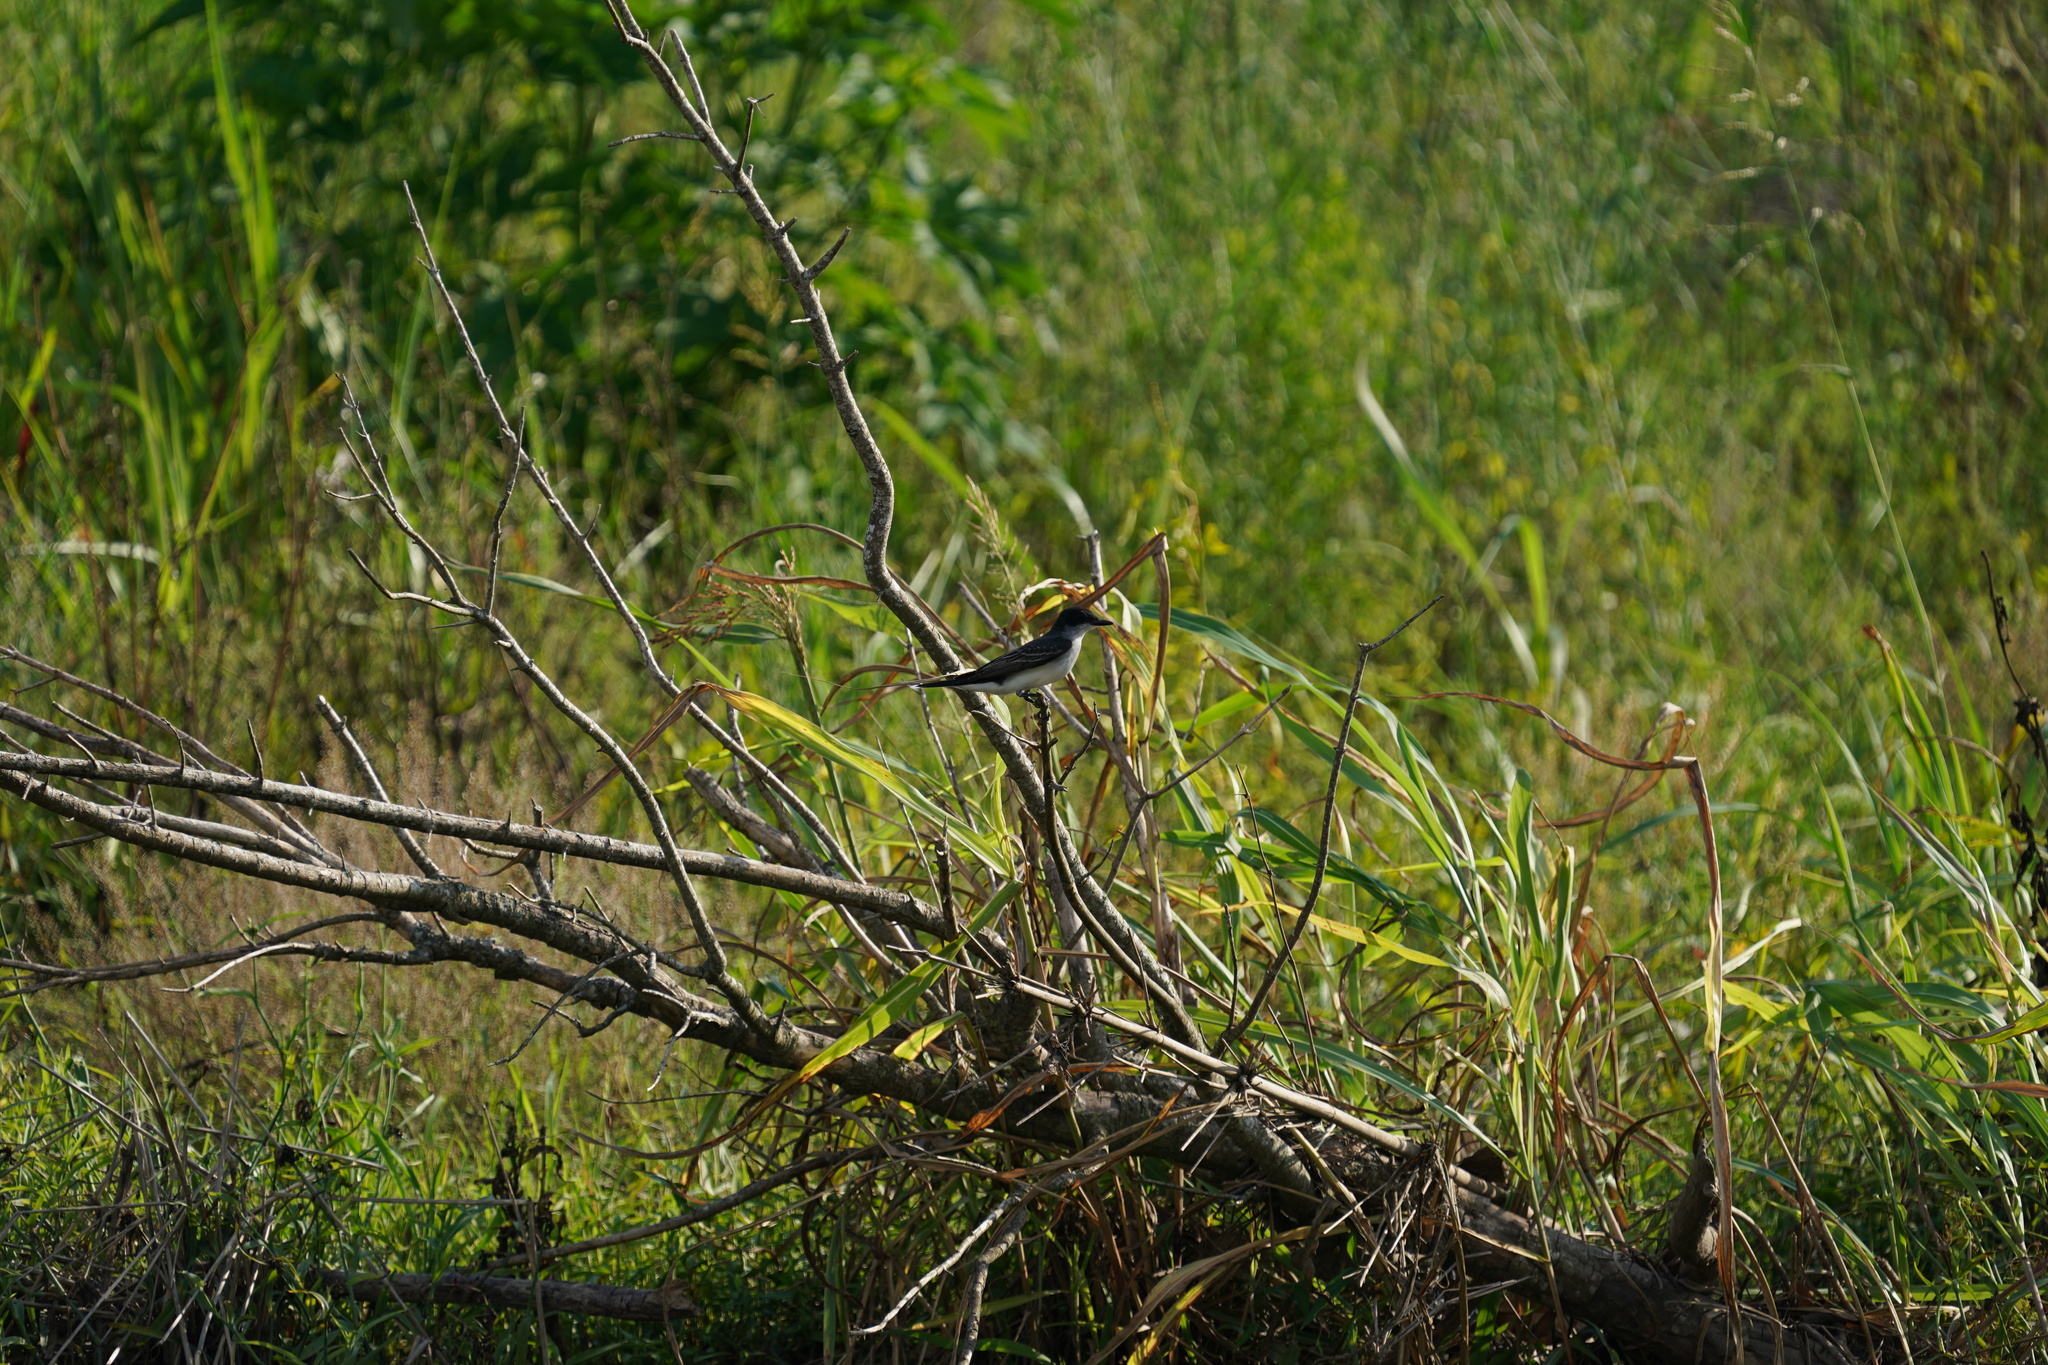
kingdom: Animalia
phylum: Chordata
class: Aves
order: Passeriformes
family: Tyrannidae
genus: Tyrannus
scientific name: Tyrannus tyrannus
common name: Eastern kingbird
